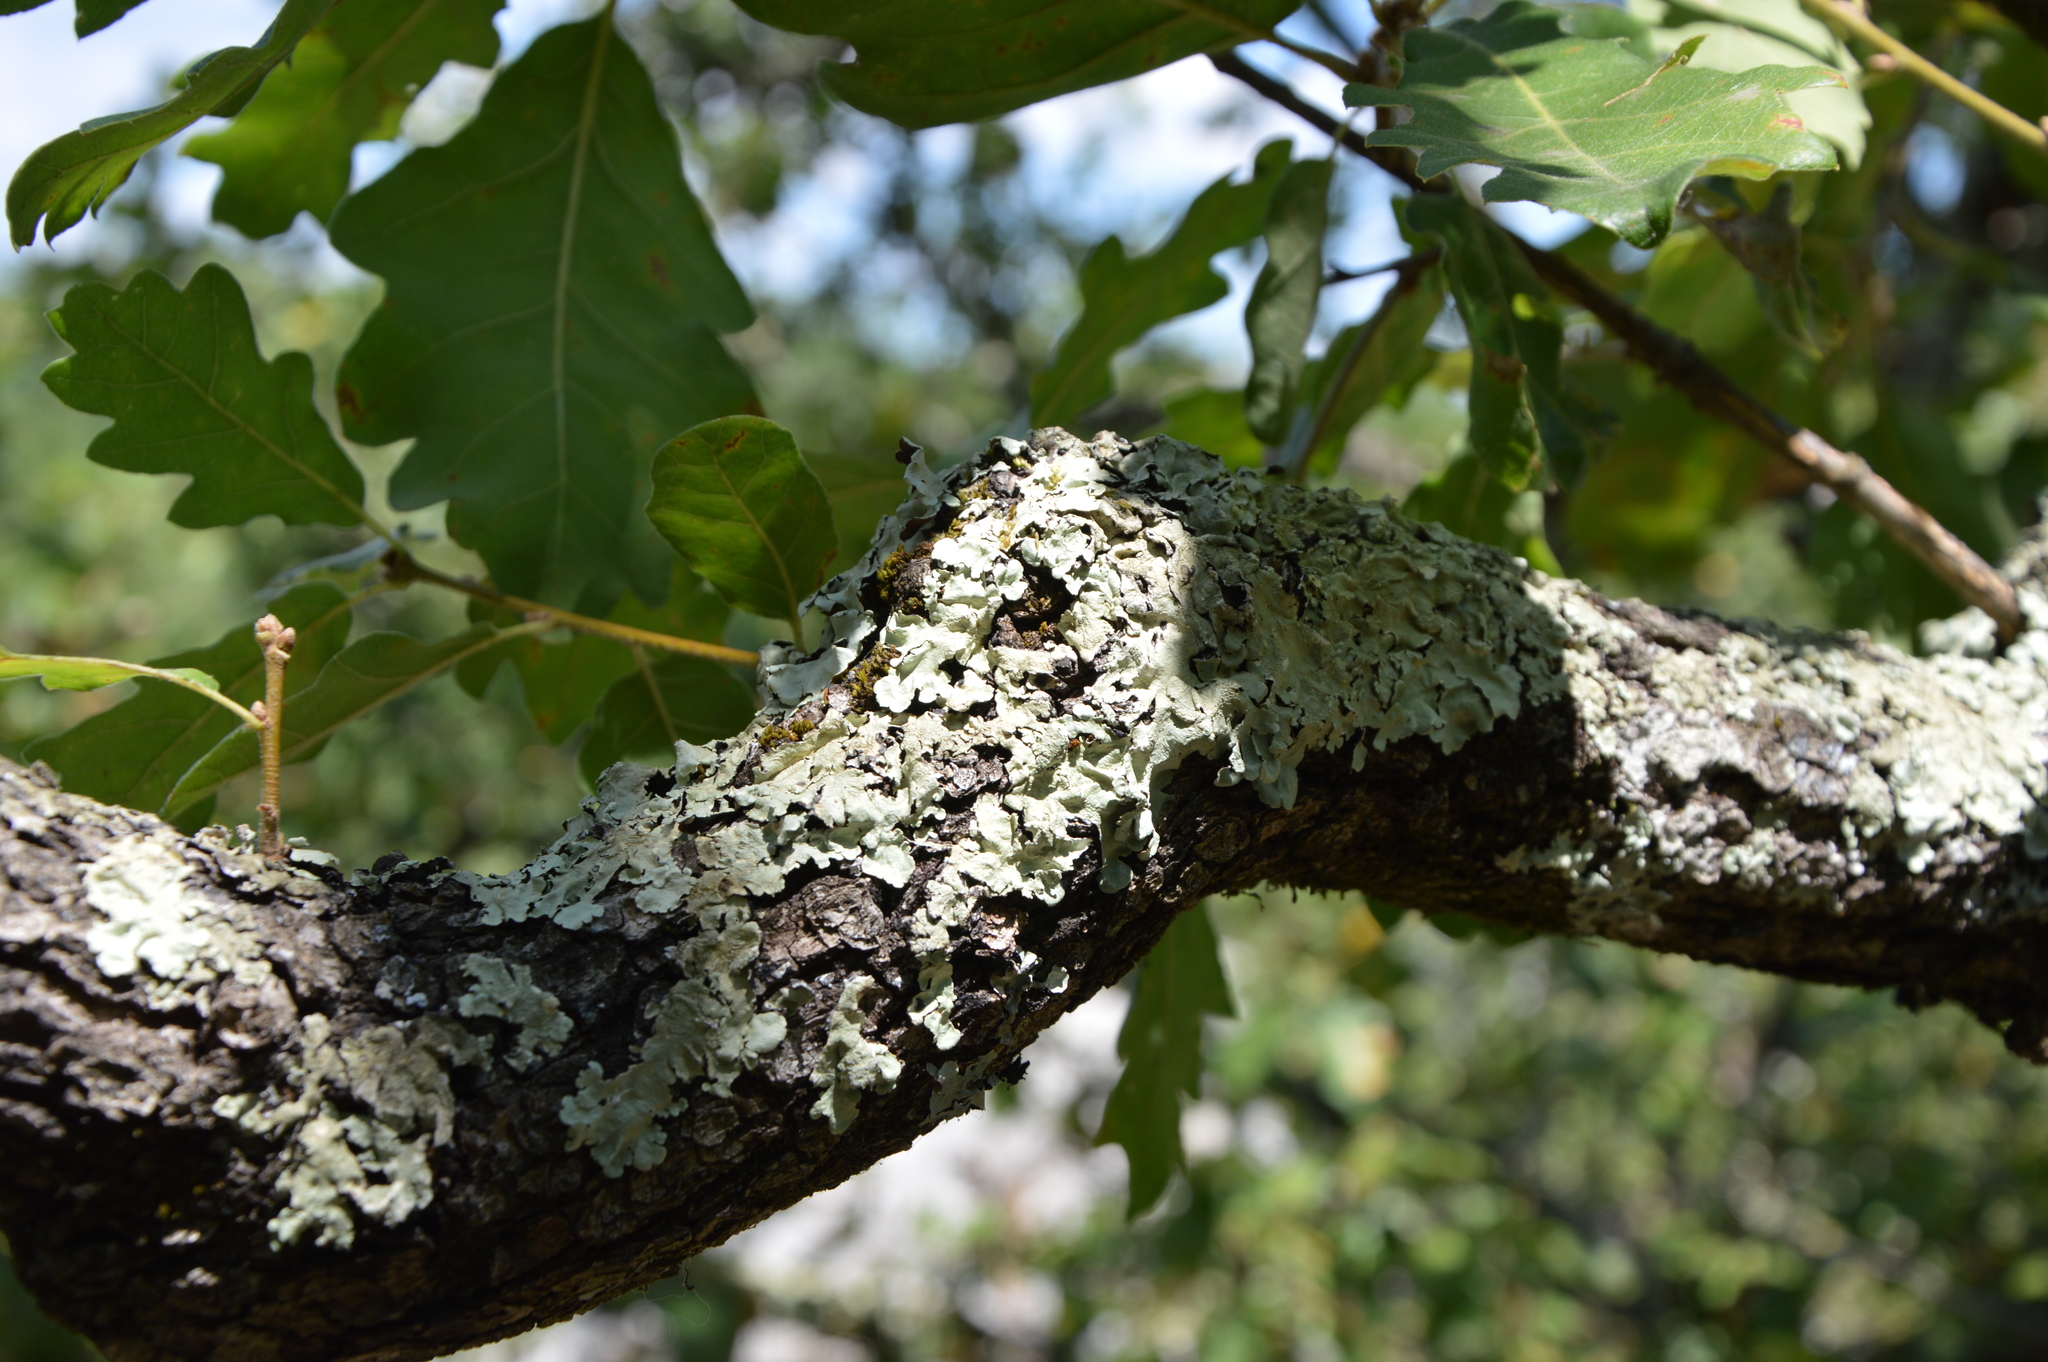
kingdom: Fungi
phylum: Ascomycota
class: Lecanoromycetes
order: Lecanorales
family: Parmeliaceae
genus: Flavoparmelia
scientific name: Flavoparmelia caperata
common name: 40-mile per hour lichen
